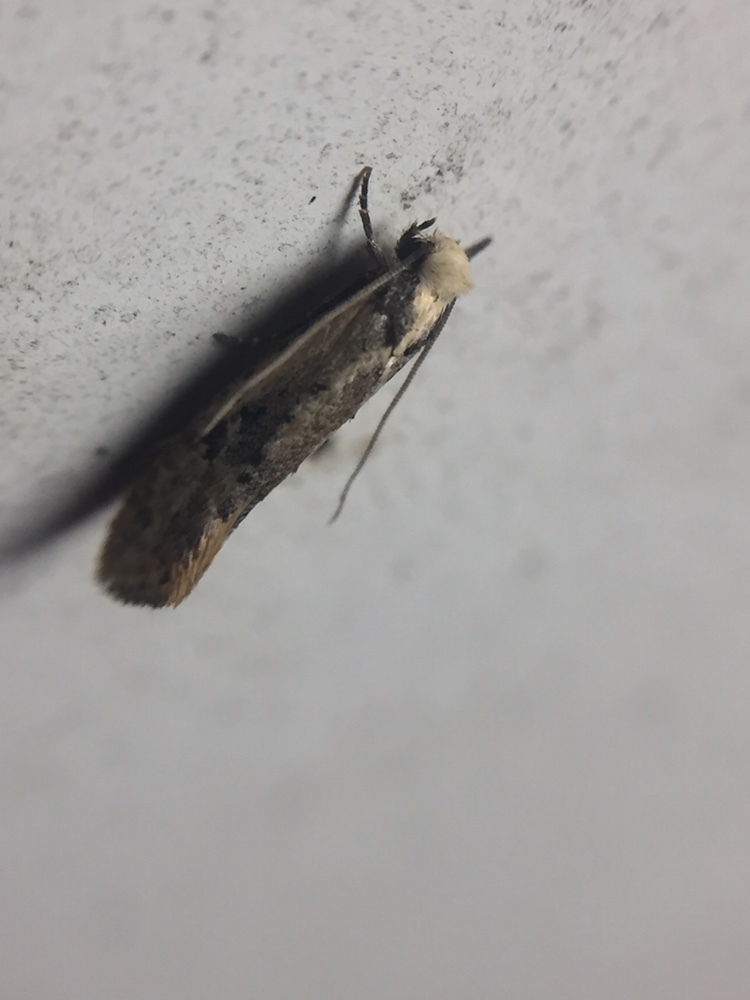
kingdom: Animalia
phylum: Arthropoda
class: Insecta
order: Lepidoptera
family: Tineidae
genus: Monopis
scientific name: Monopis argillacea
